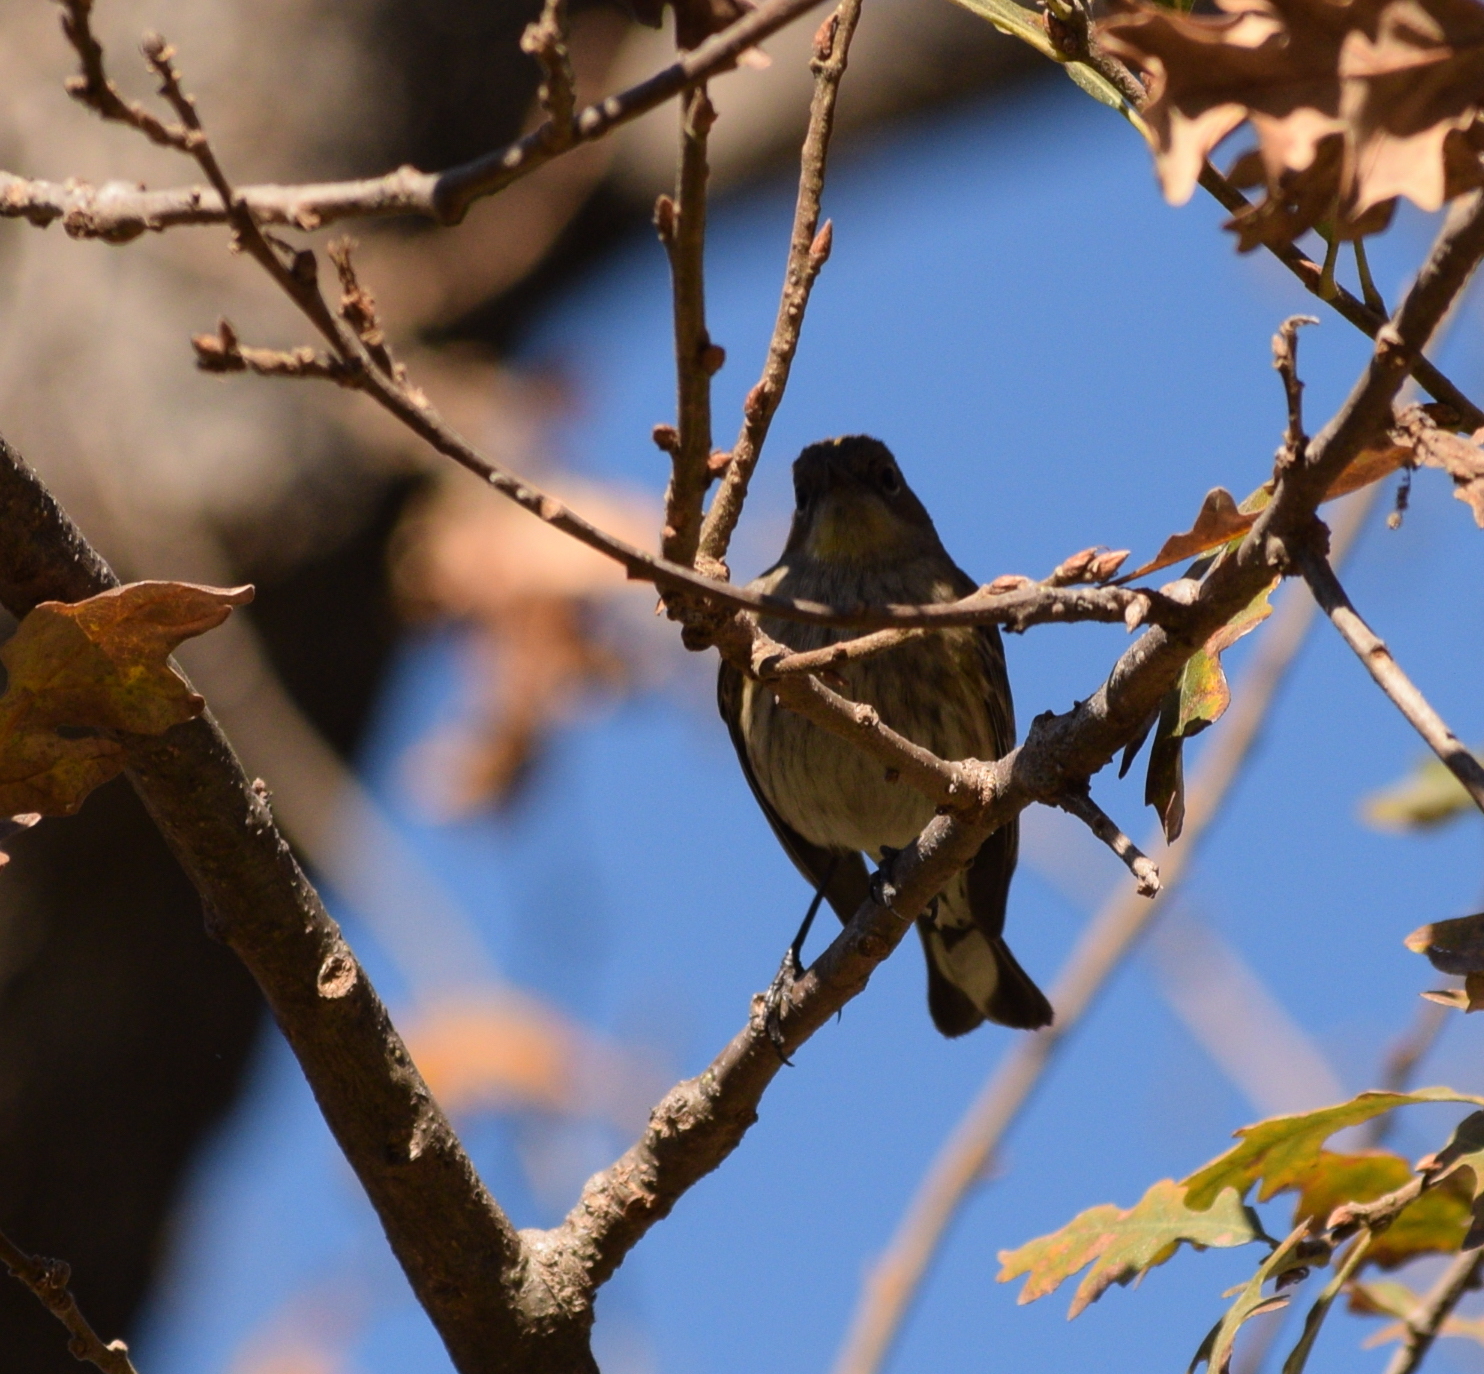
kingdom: Animalia
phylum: Chordata
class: Aves
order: Passeriformes
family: Parulidae
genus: Setophaga
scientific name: Setophaga coronata
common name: Myrtle warbler
